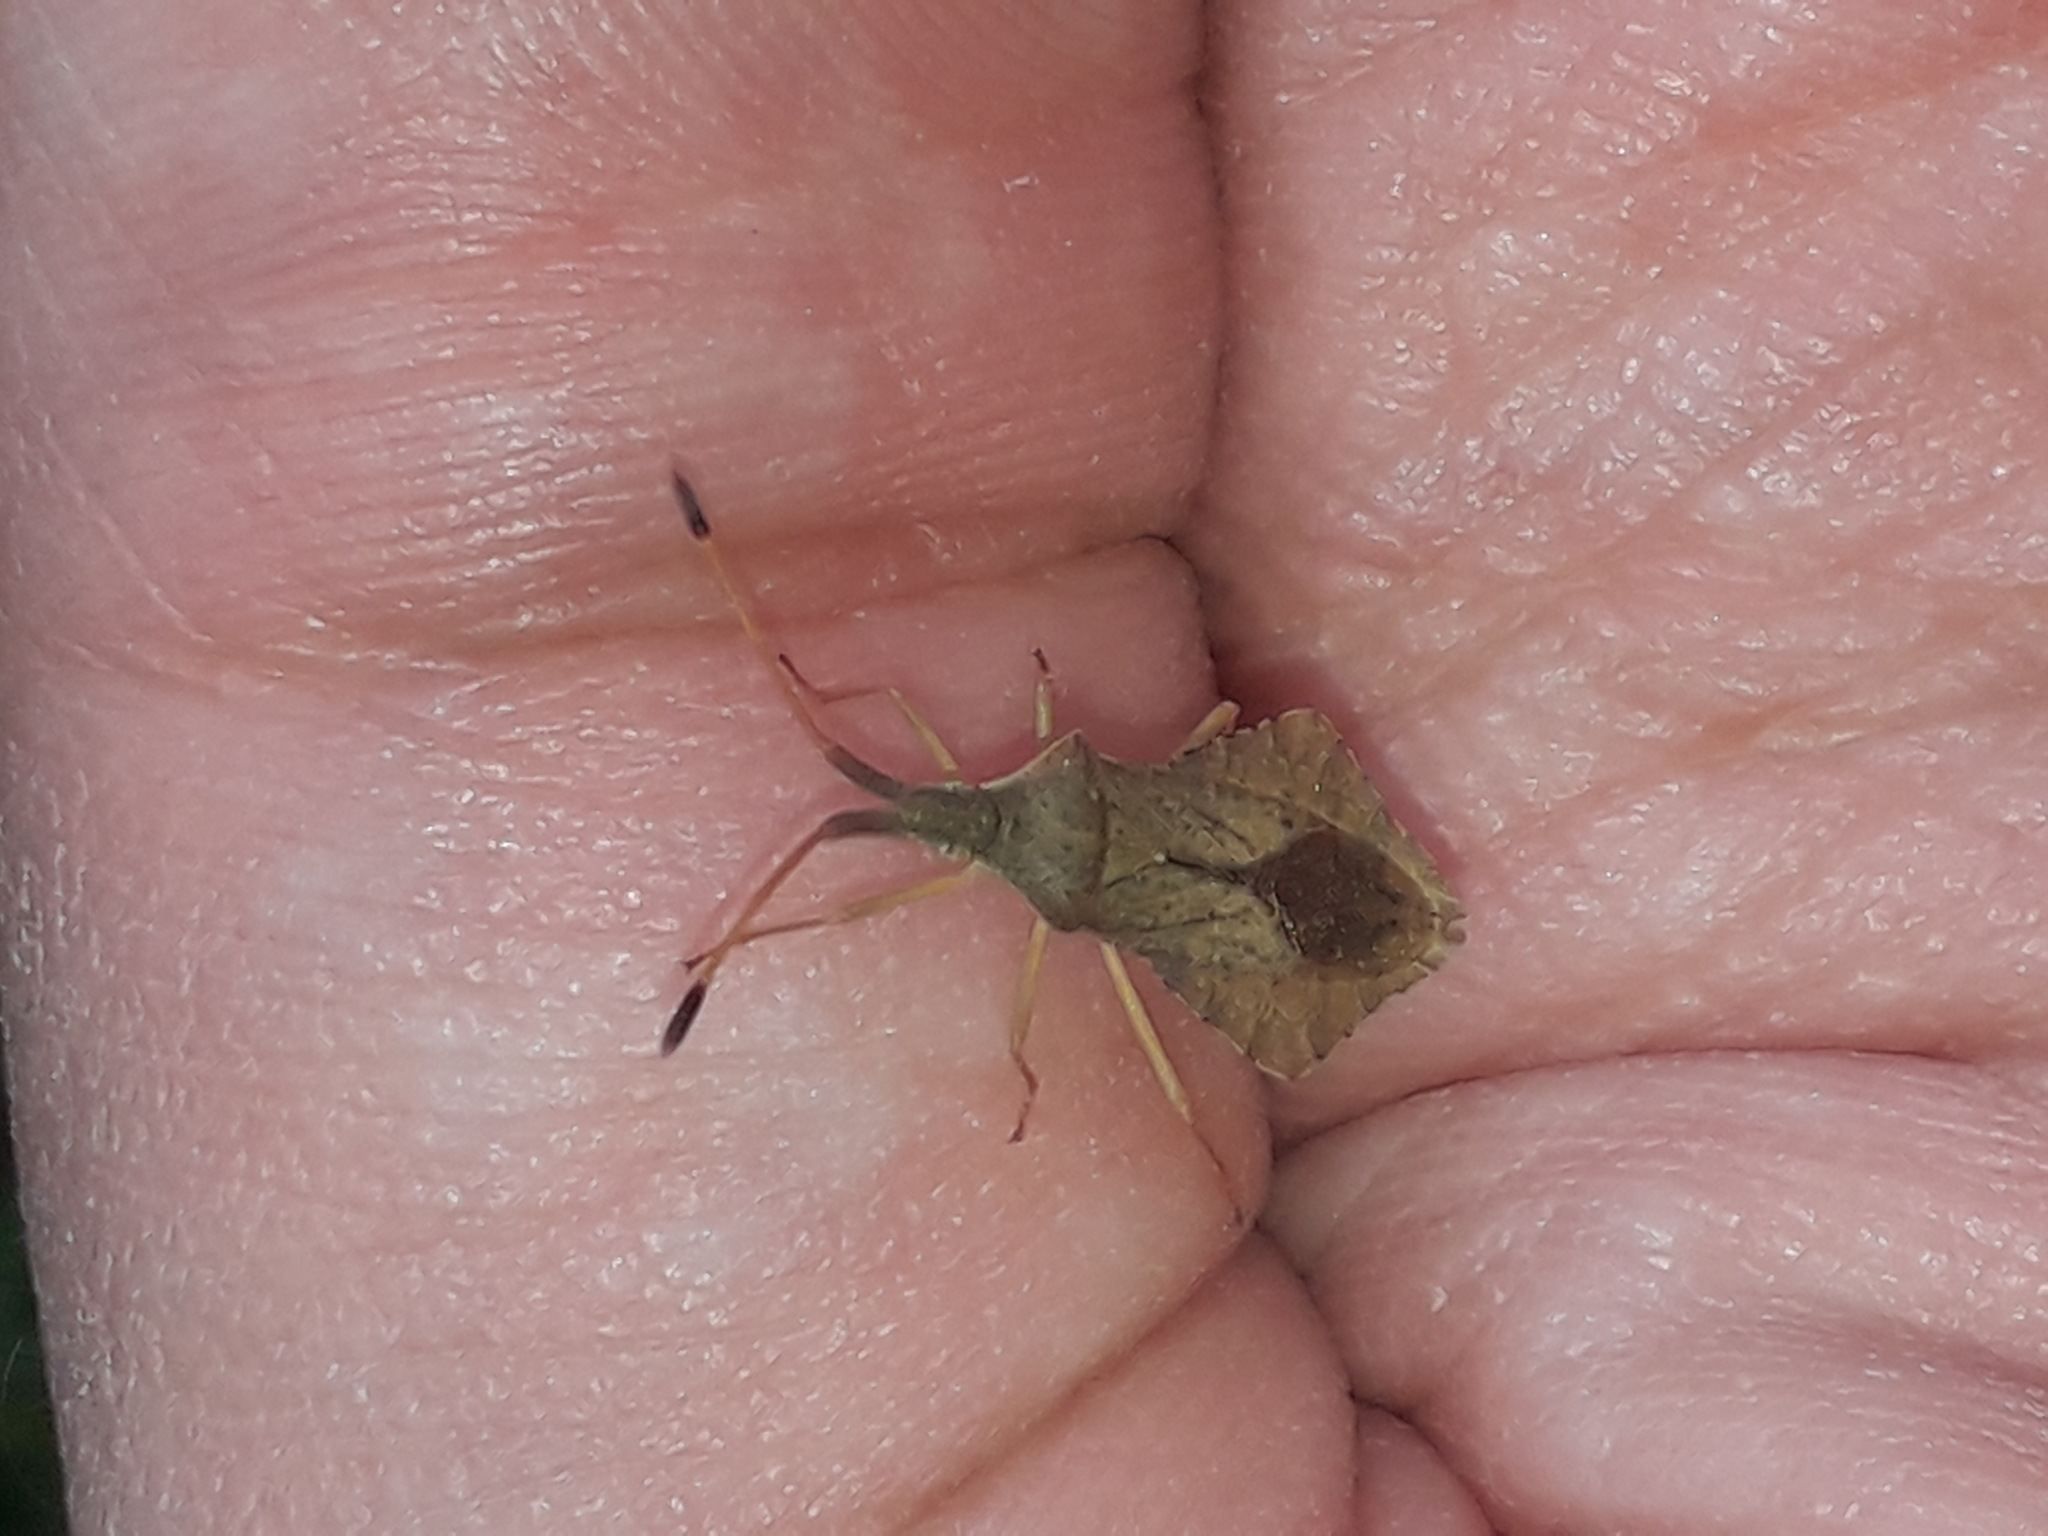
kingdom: Animalia
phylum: Arthropoda
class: Insecta
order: Hemiptera
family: Coreidae
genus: Syromastus
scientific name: Syromastus rhombeus
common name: Rhombic leatherbug
